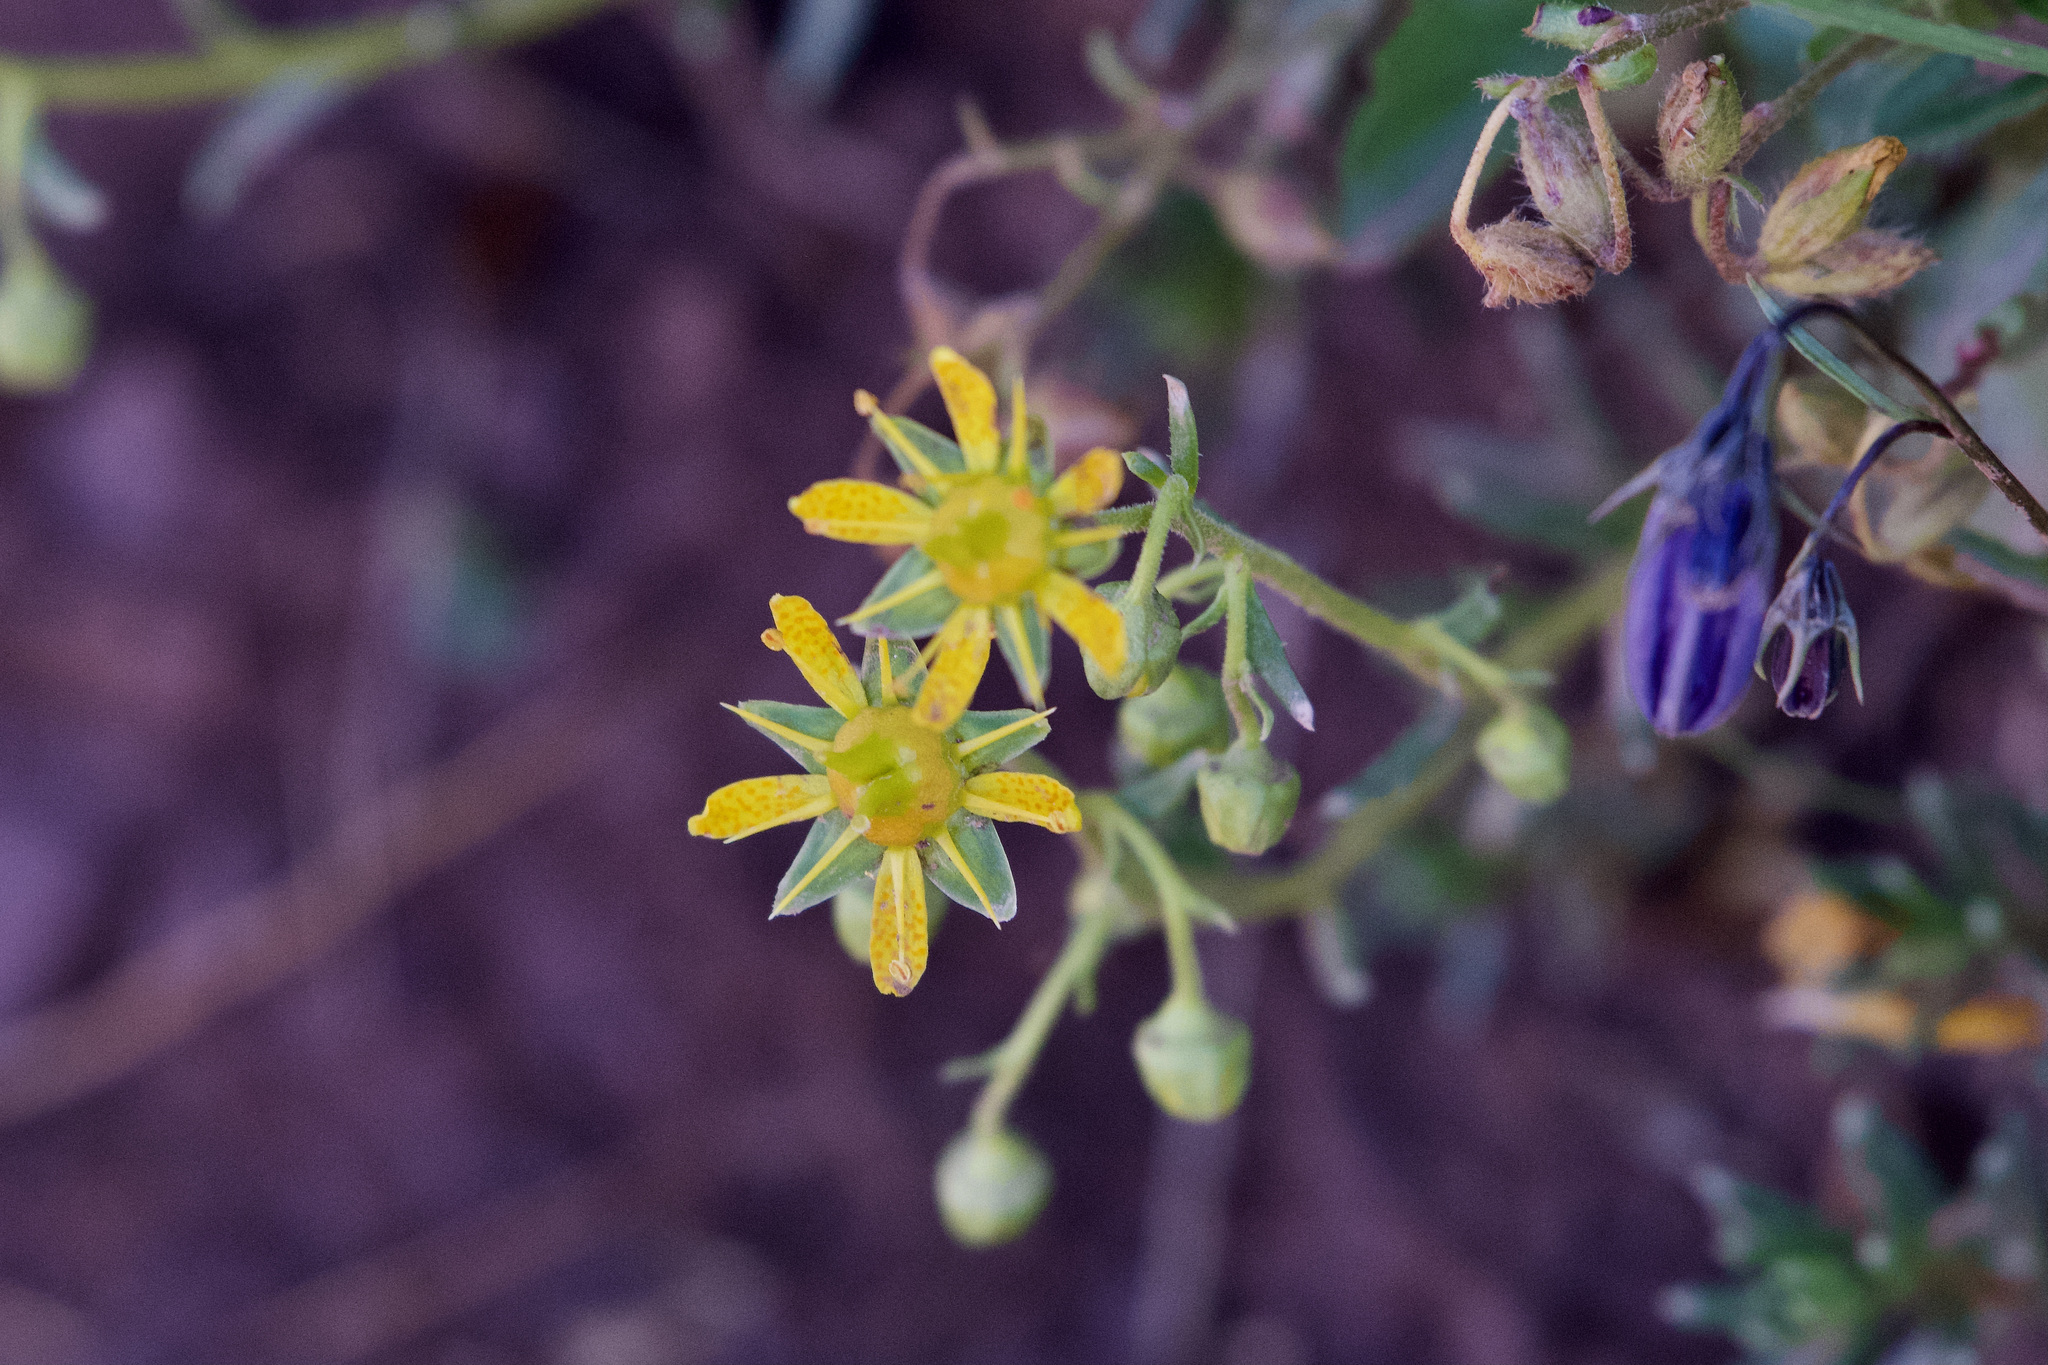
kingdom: Plantae
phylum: Tracheophyta
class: Magnoliopsida
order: Saxifragales
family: Saxifragaceae
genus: Saxifraga
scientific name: Saxifraga aizoides
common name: Yellow mountain saxifrage
